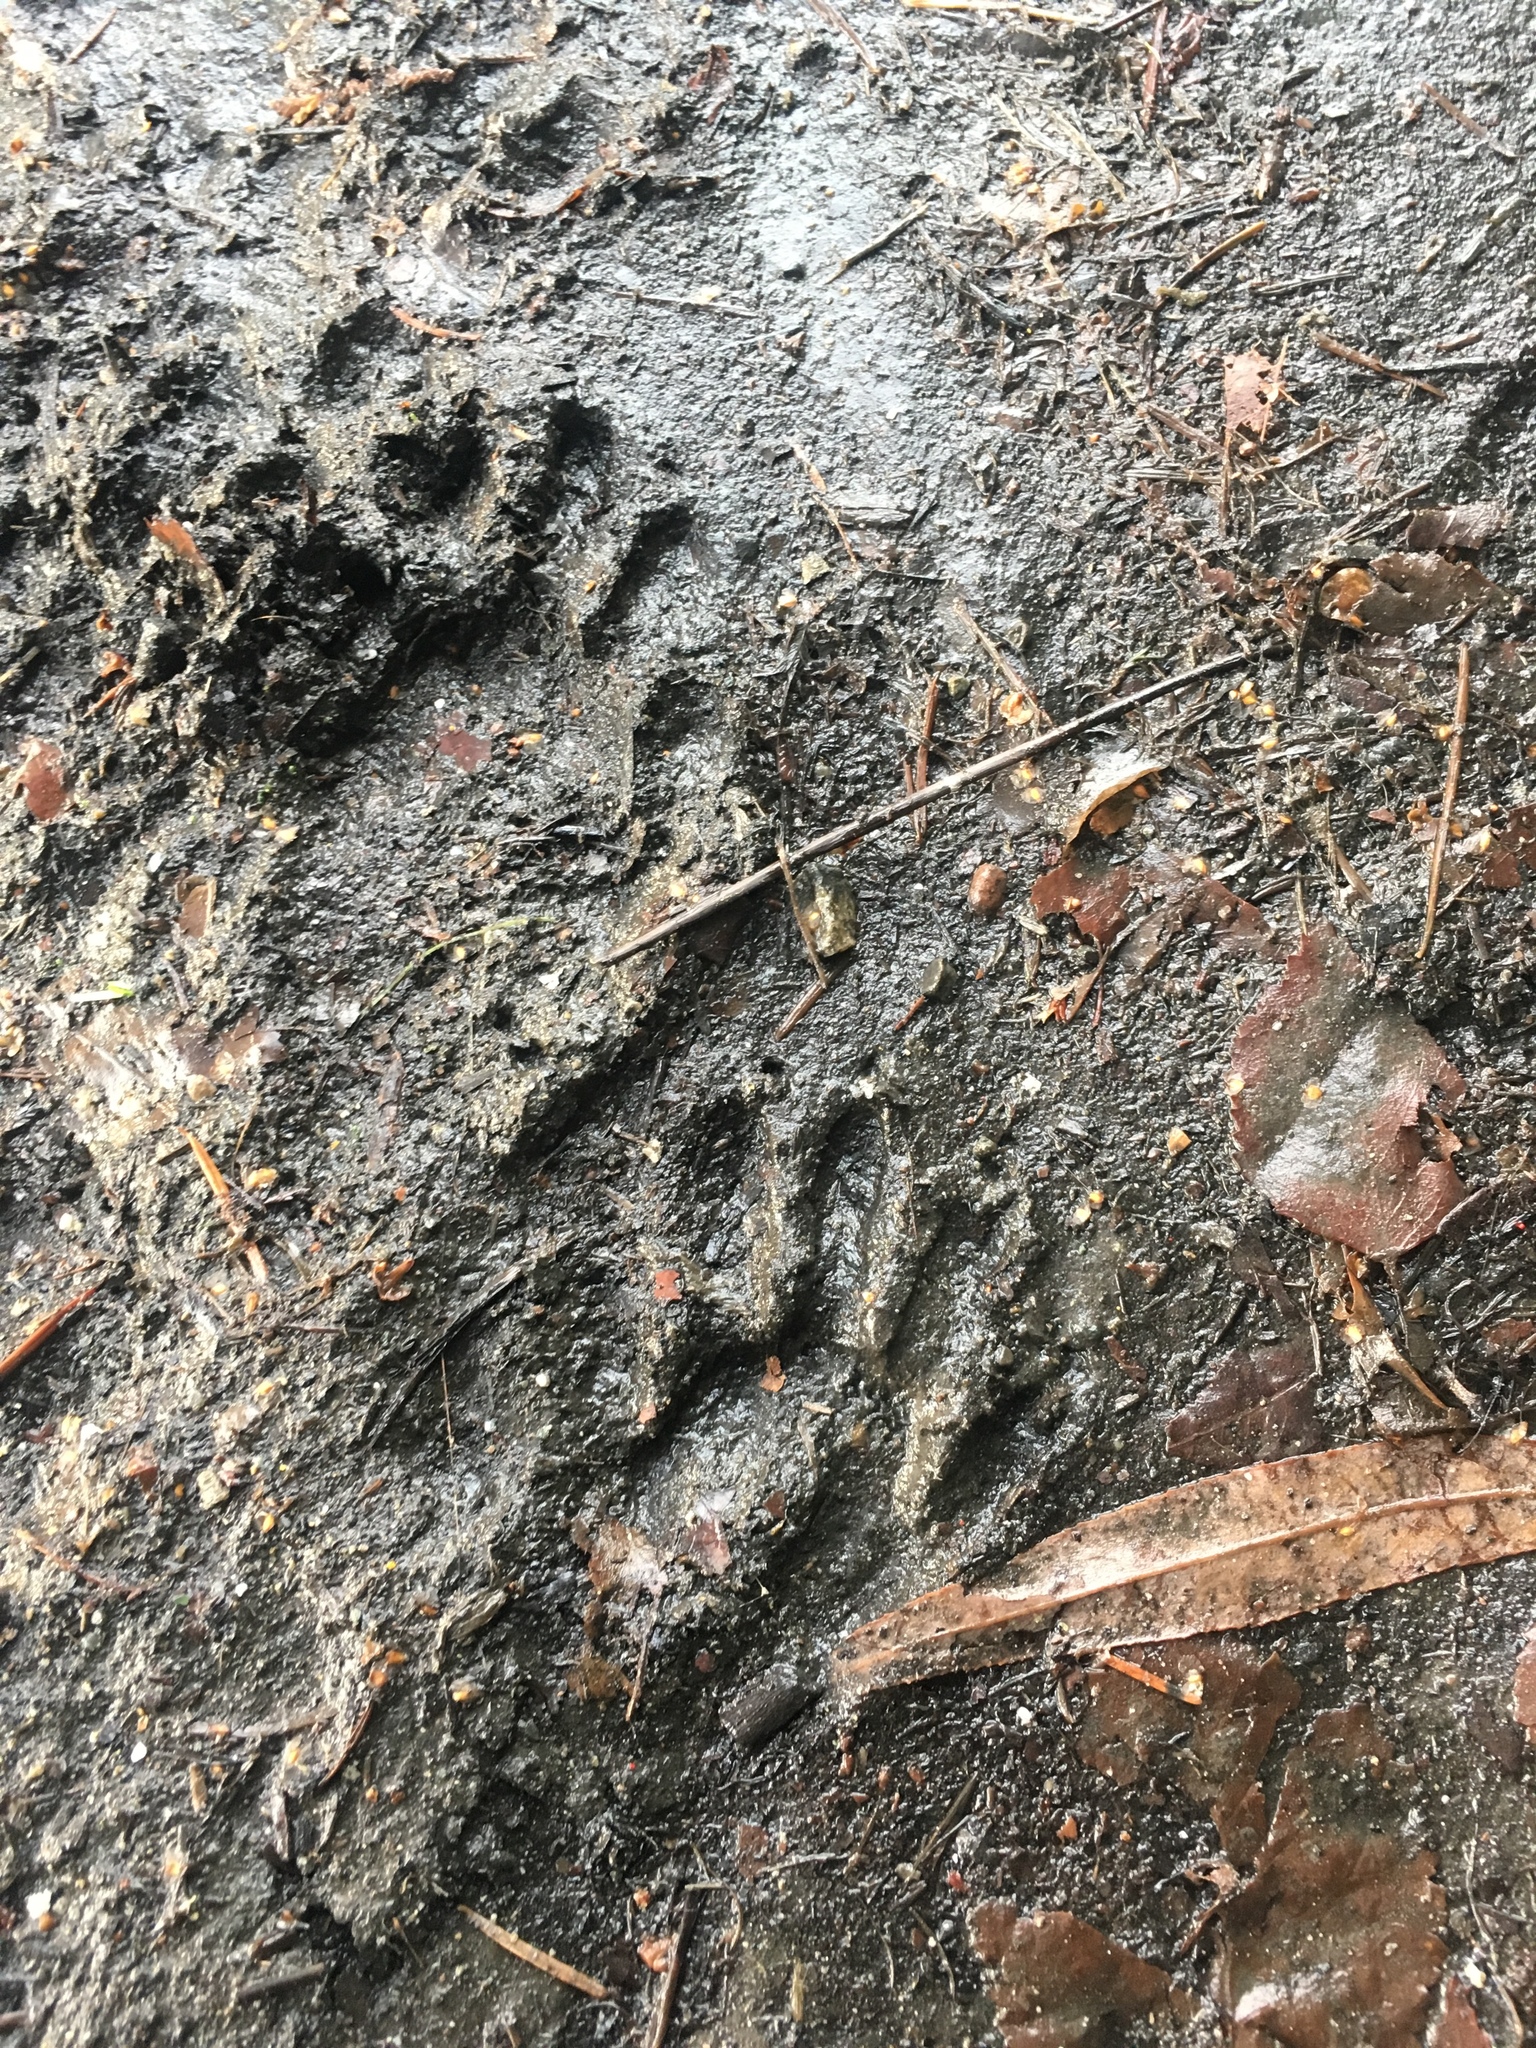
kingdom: Animalia
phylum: Chordata
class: Mammalia
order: Carnivora
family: Procyonidae
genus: Procyon
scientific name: Procyon lotor
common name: Raccoon
